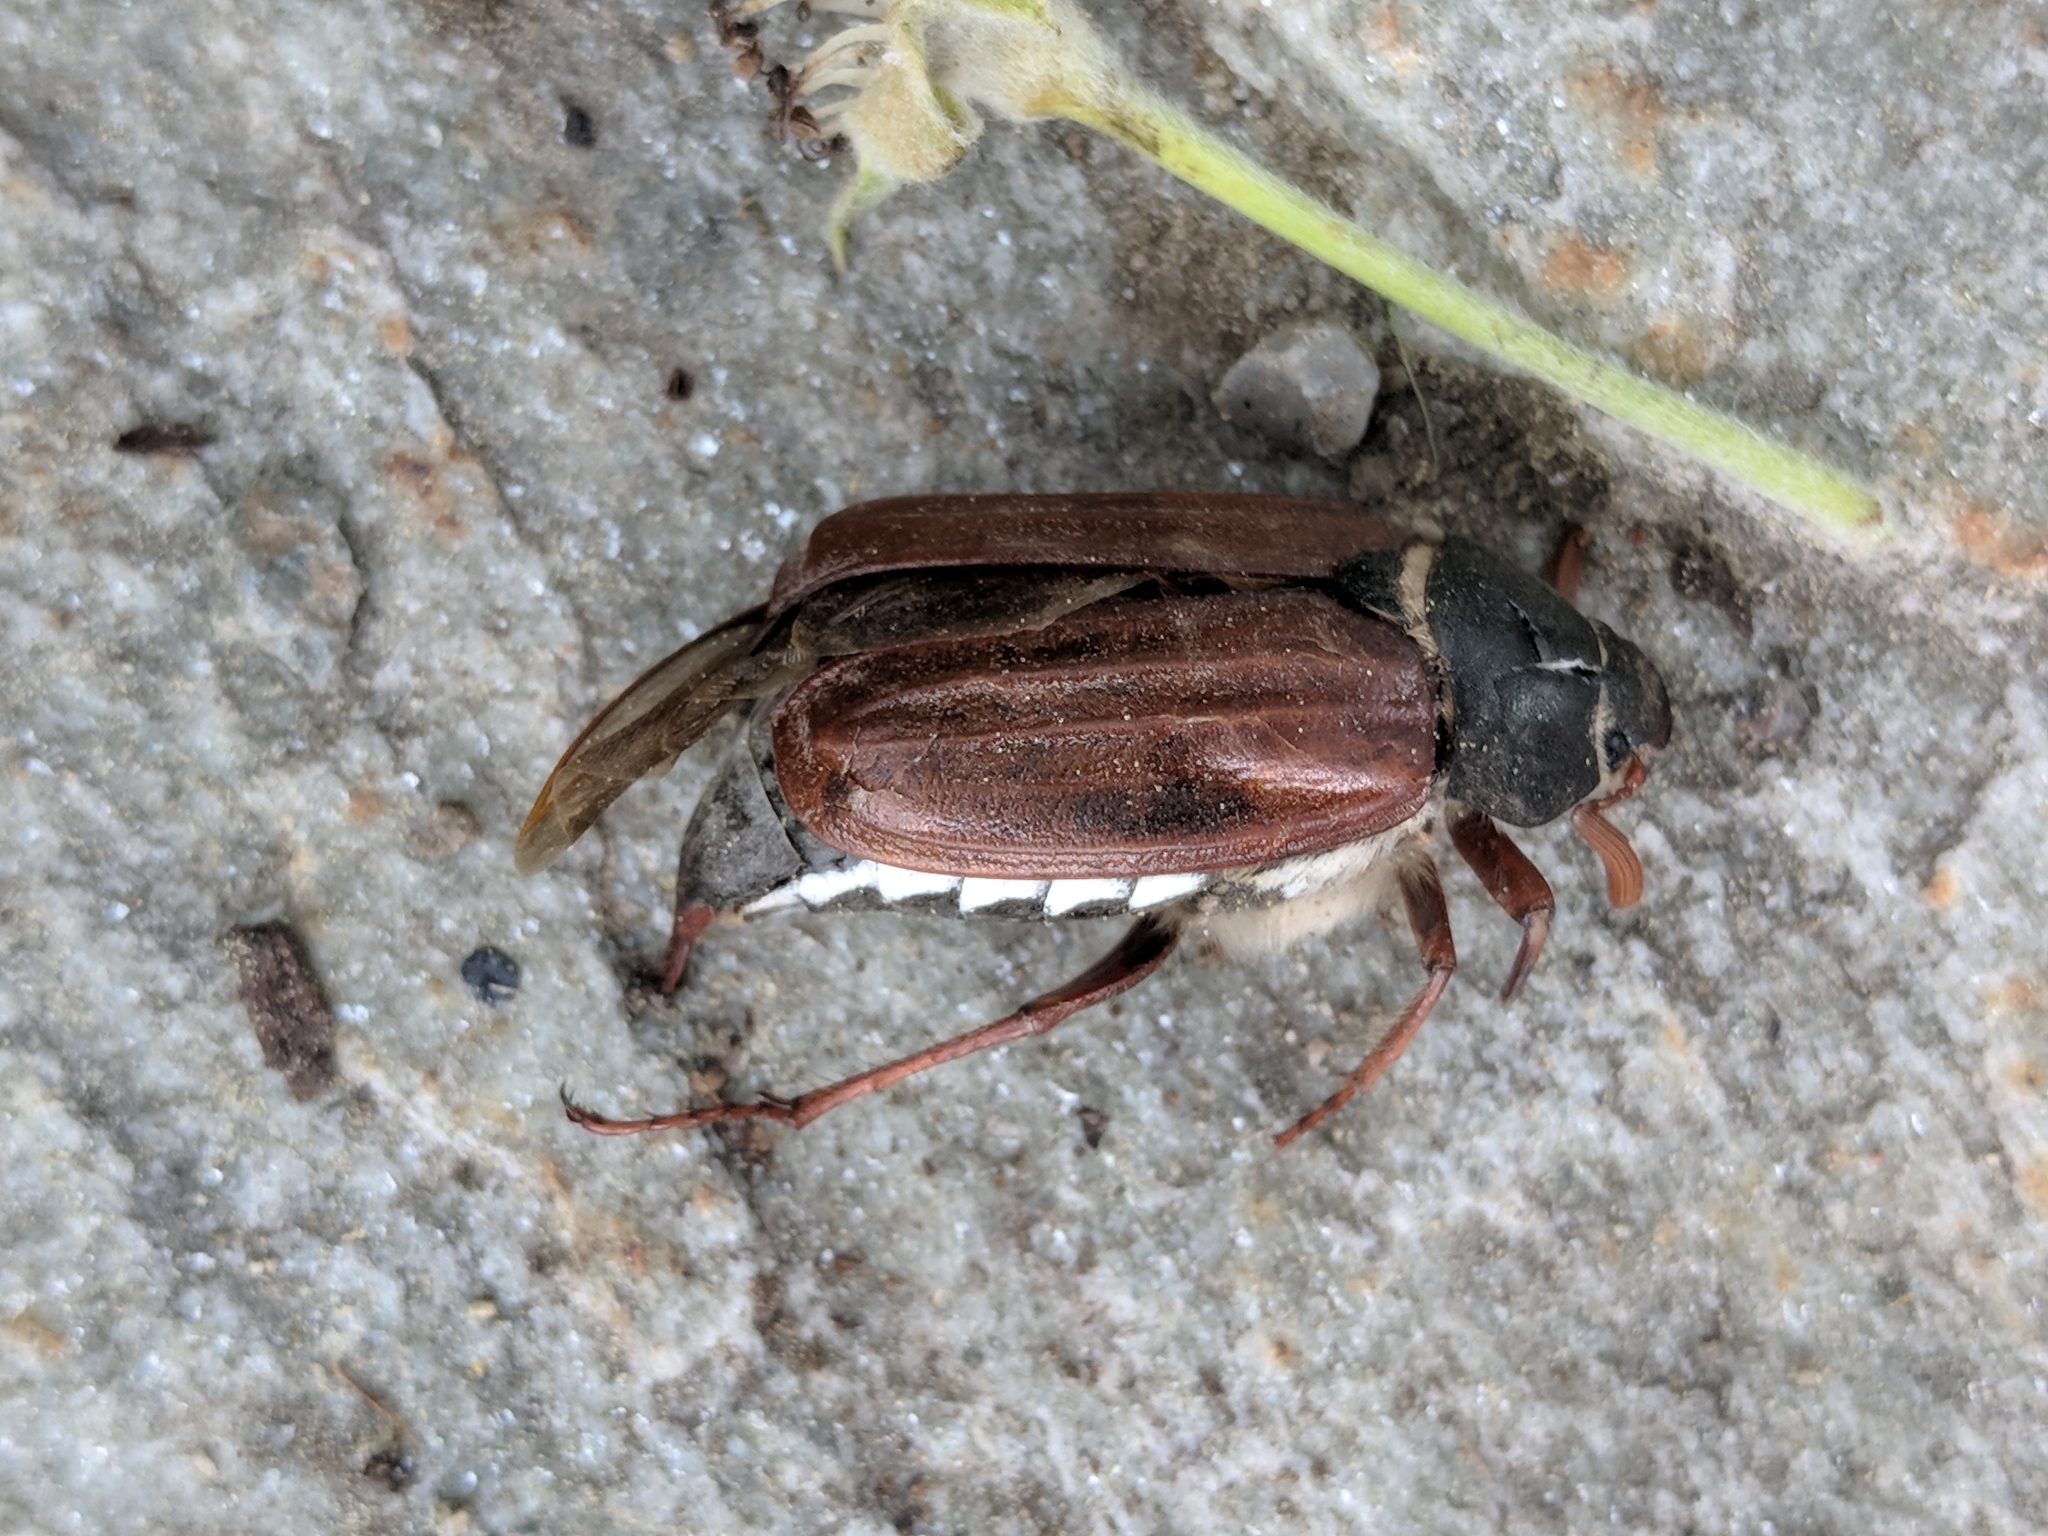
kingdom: Animalia
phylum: Arthropoda
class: Insecta
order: Coleoptera
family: Scarabaeidae
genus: Melolontha
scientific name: Melolontha melolontha
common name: Cockchafer maybeetle
